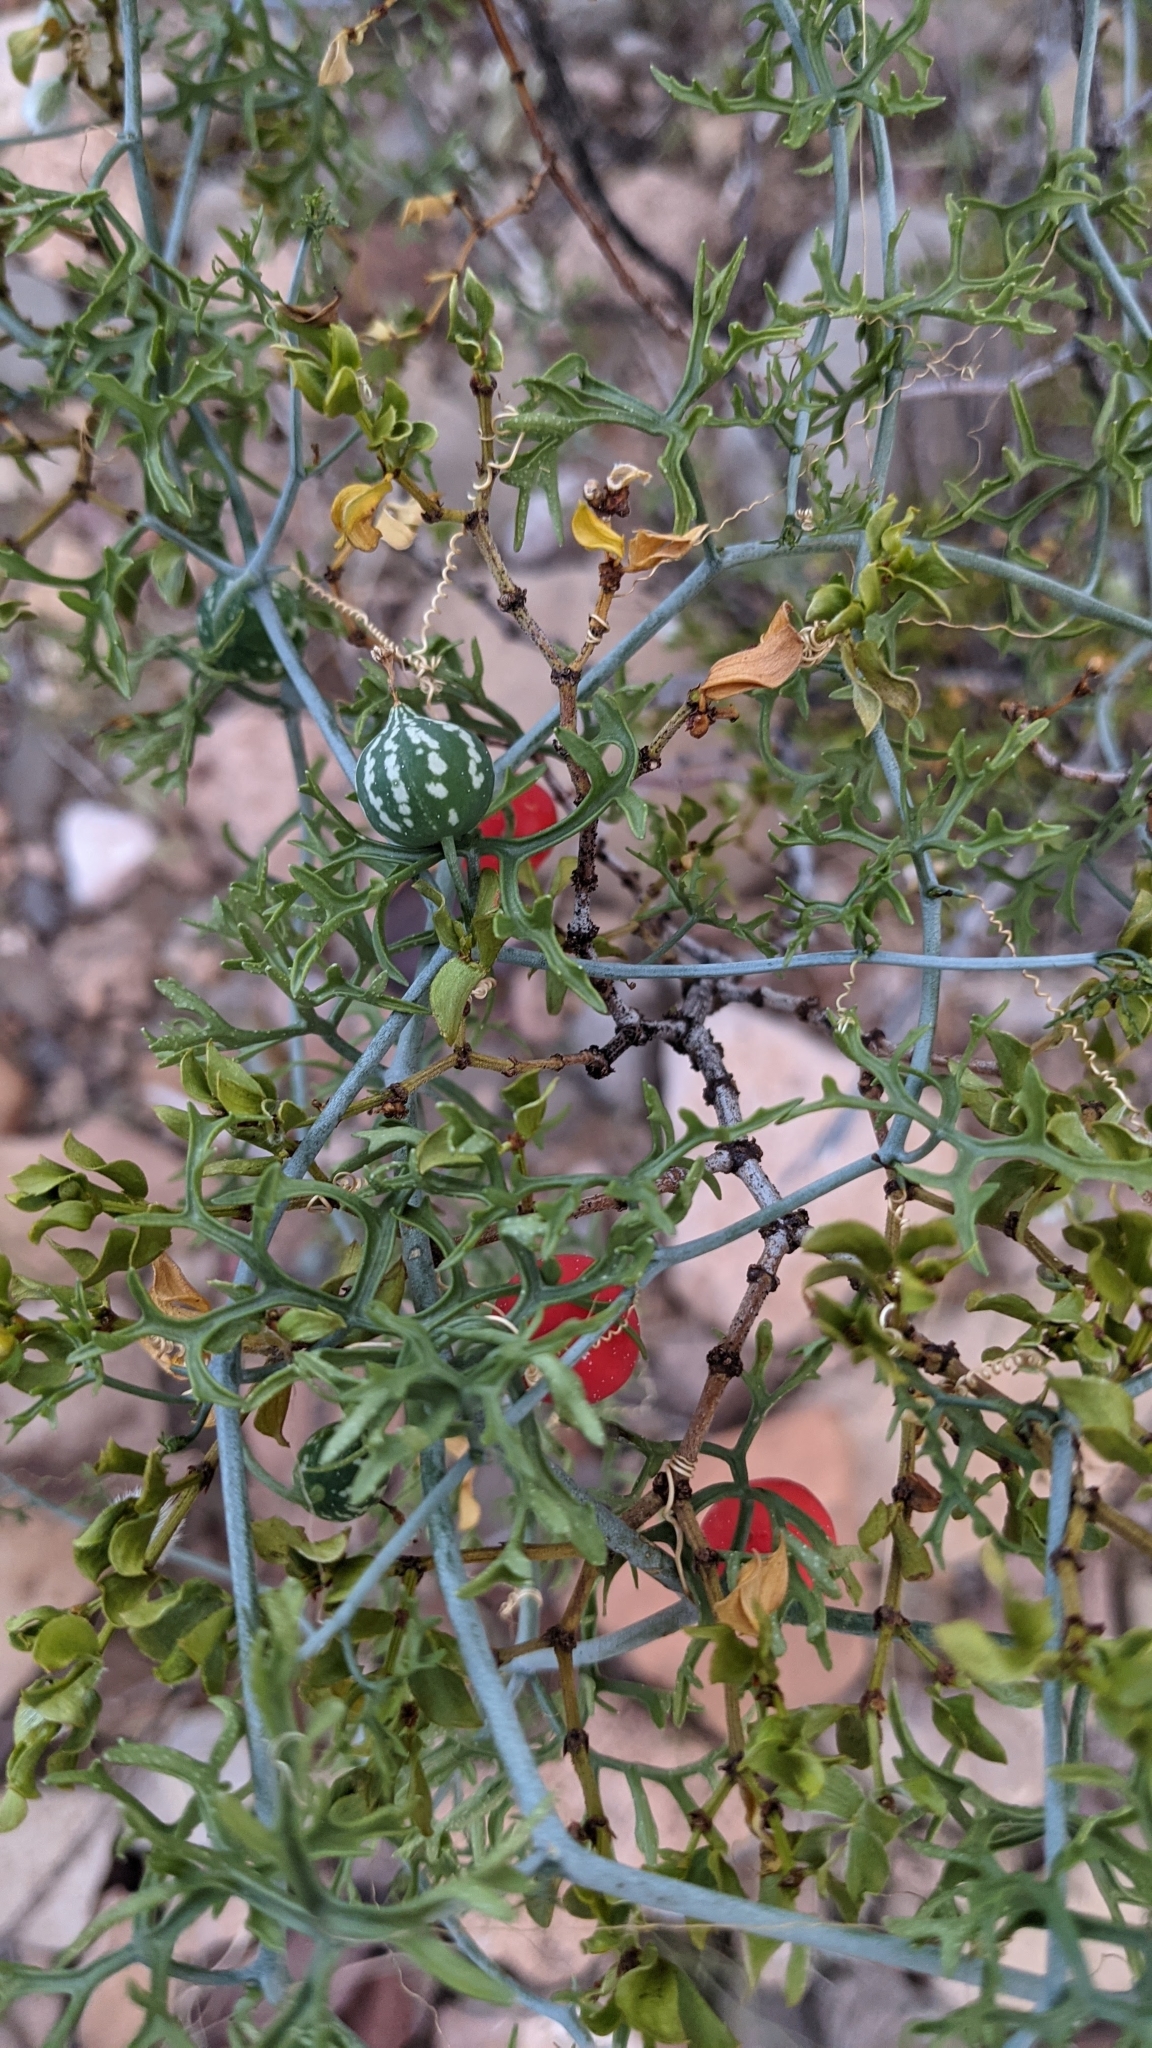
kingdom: Plantae
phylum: Tracheophyta
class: Magnoliopsida
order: Cucurbitales
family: Cucurbitaceae
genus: Ibervillea
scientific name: Ibervillea tenuisecta
